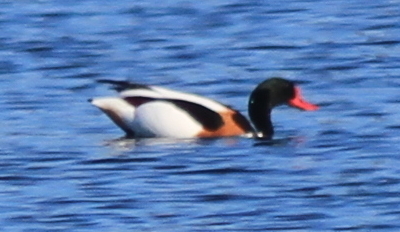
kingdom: Animalia
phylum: Chordata
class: Aves
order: Anseriformes
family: Anatidae
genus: Tadorna
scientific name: Tadorna tadorna
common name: Common shelduck
